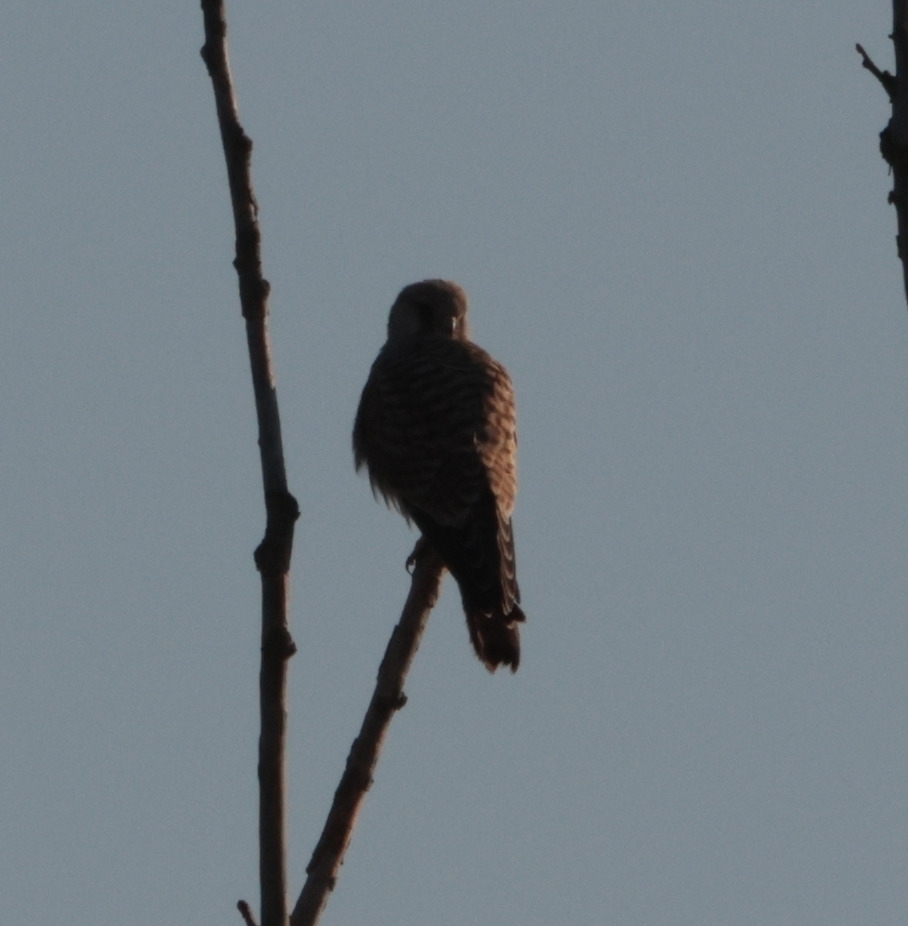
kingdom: Animalia
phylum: Chordata
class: Aves
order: Falconiformes
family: Falconidae
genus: Falco
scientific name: Falco tinnunculus
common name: Common kestrel
